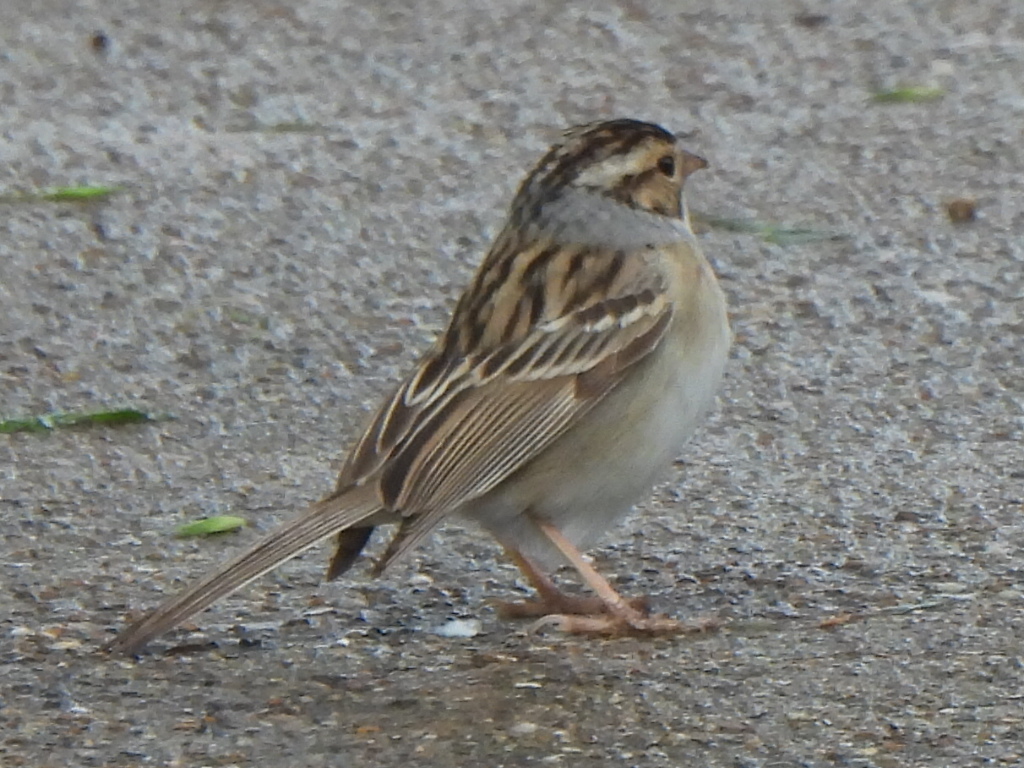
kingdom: Animalia
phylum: Chordata
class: Aves
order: Passeriformes
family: Passerellidae
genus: Spizella
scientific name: Spizella passerina
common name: Chipping sparrow
